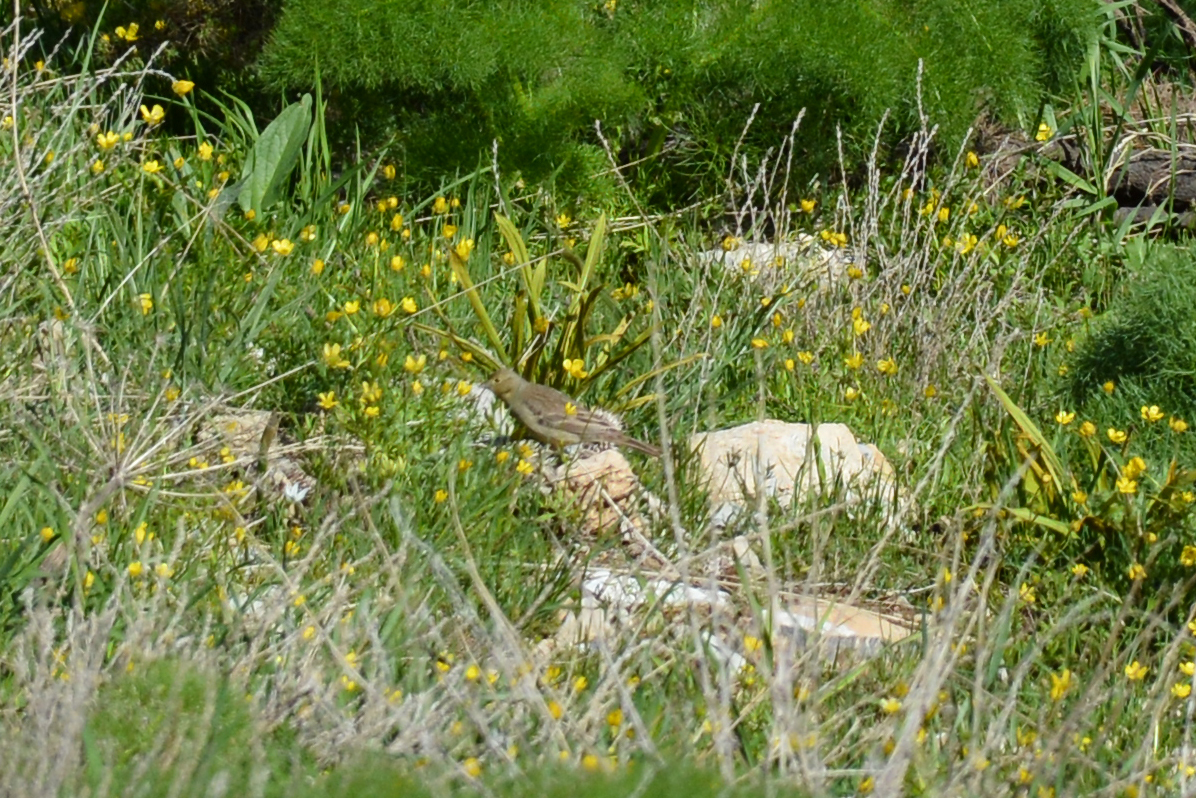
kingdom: Animalia
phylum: Chordata
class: Aves
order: Passeriformes
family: Emberizidae
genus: Emberiza
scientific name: Emberiza cineracea
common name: Cinereous bunting
